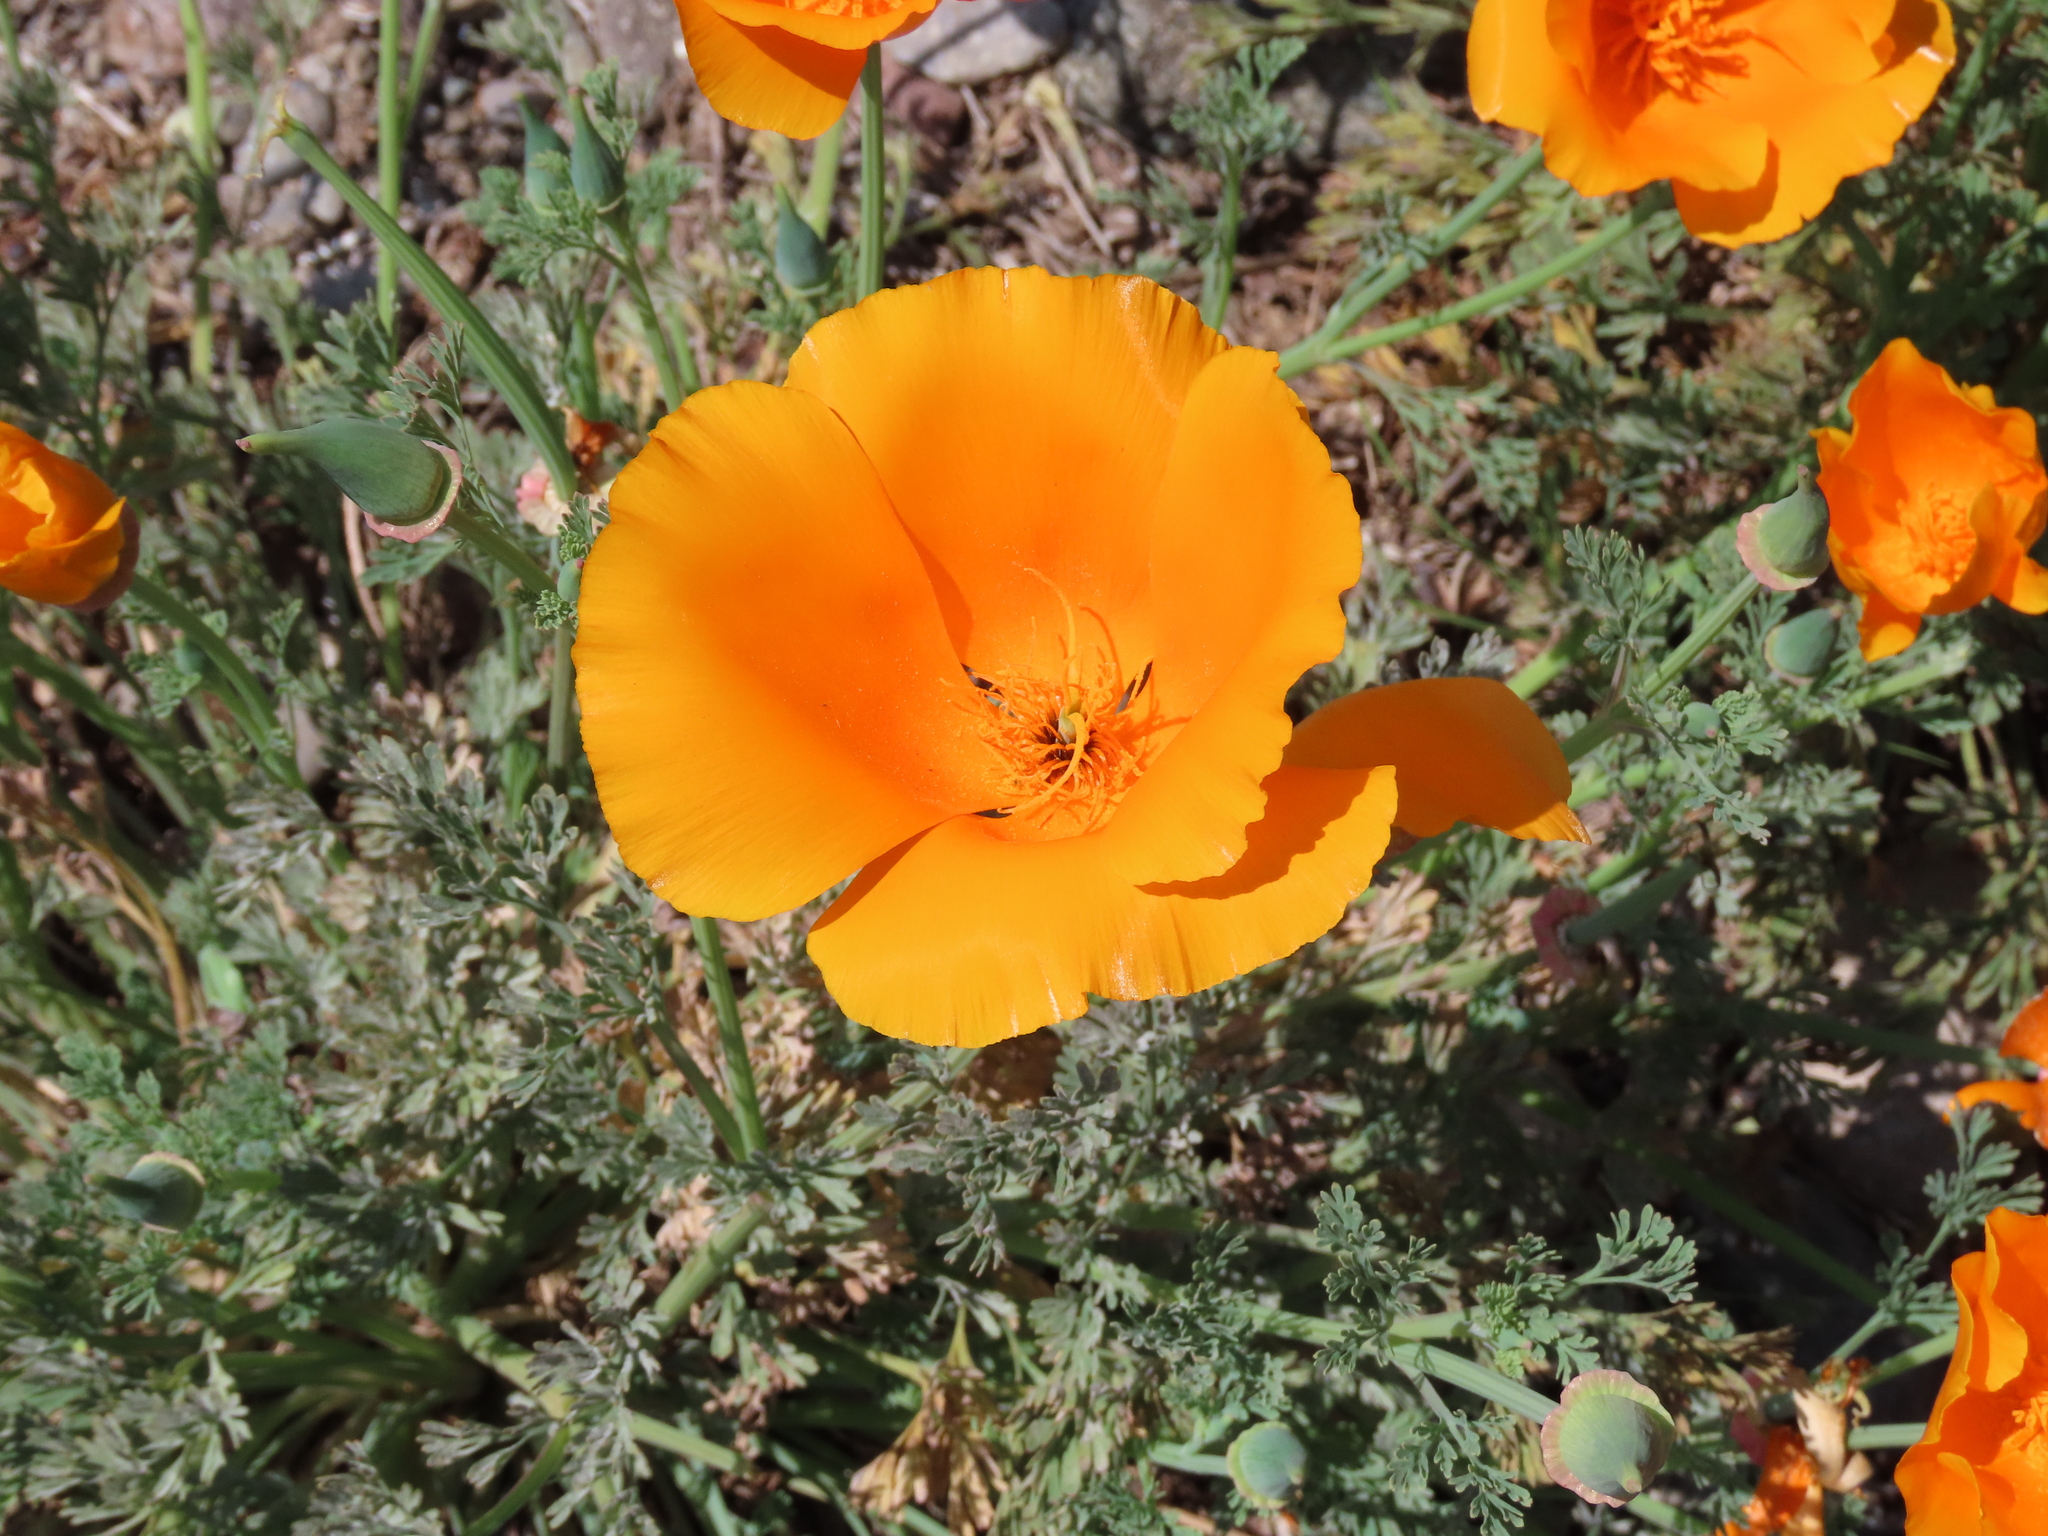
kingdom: Plantae
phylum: Tracheophyta
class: Magnoliopsida
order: Ranunculales
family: Papaveraceae
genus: Eschscholzia
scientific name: Eschscholzia californica
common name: California poppy
